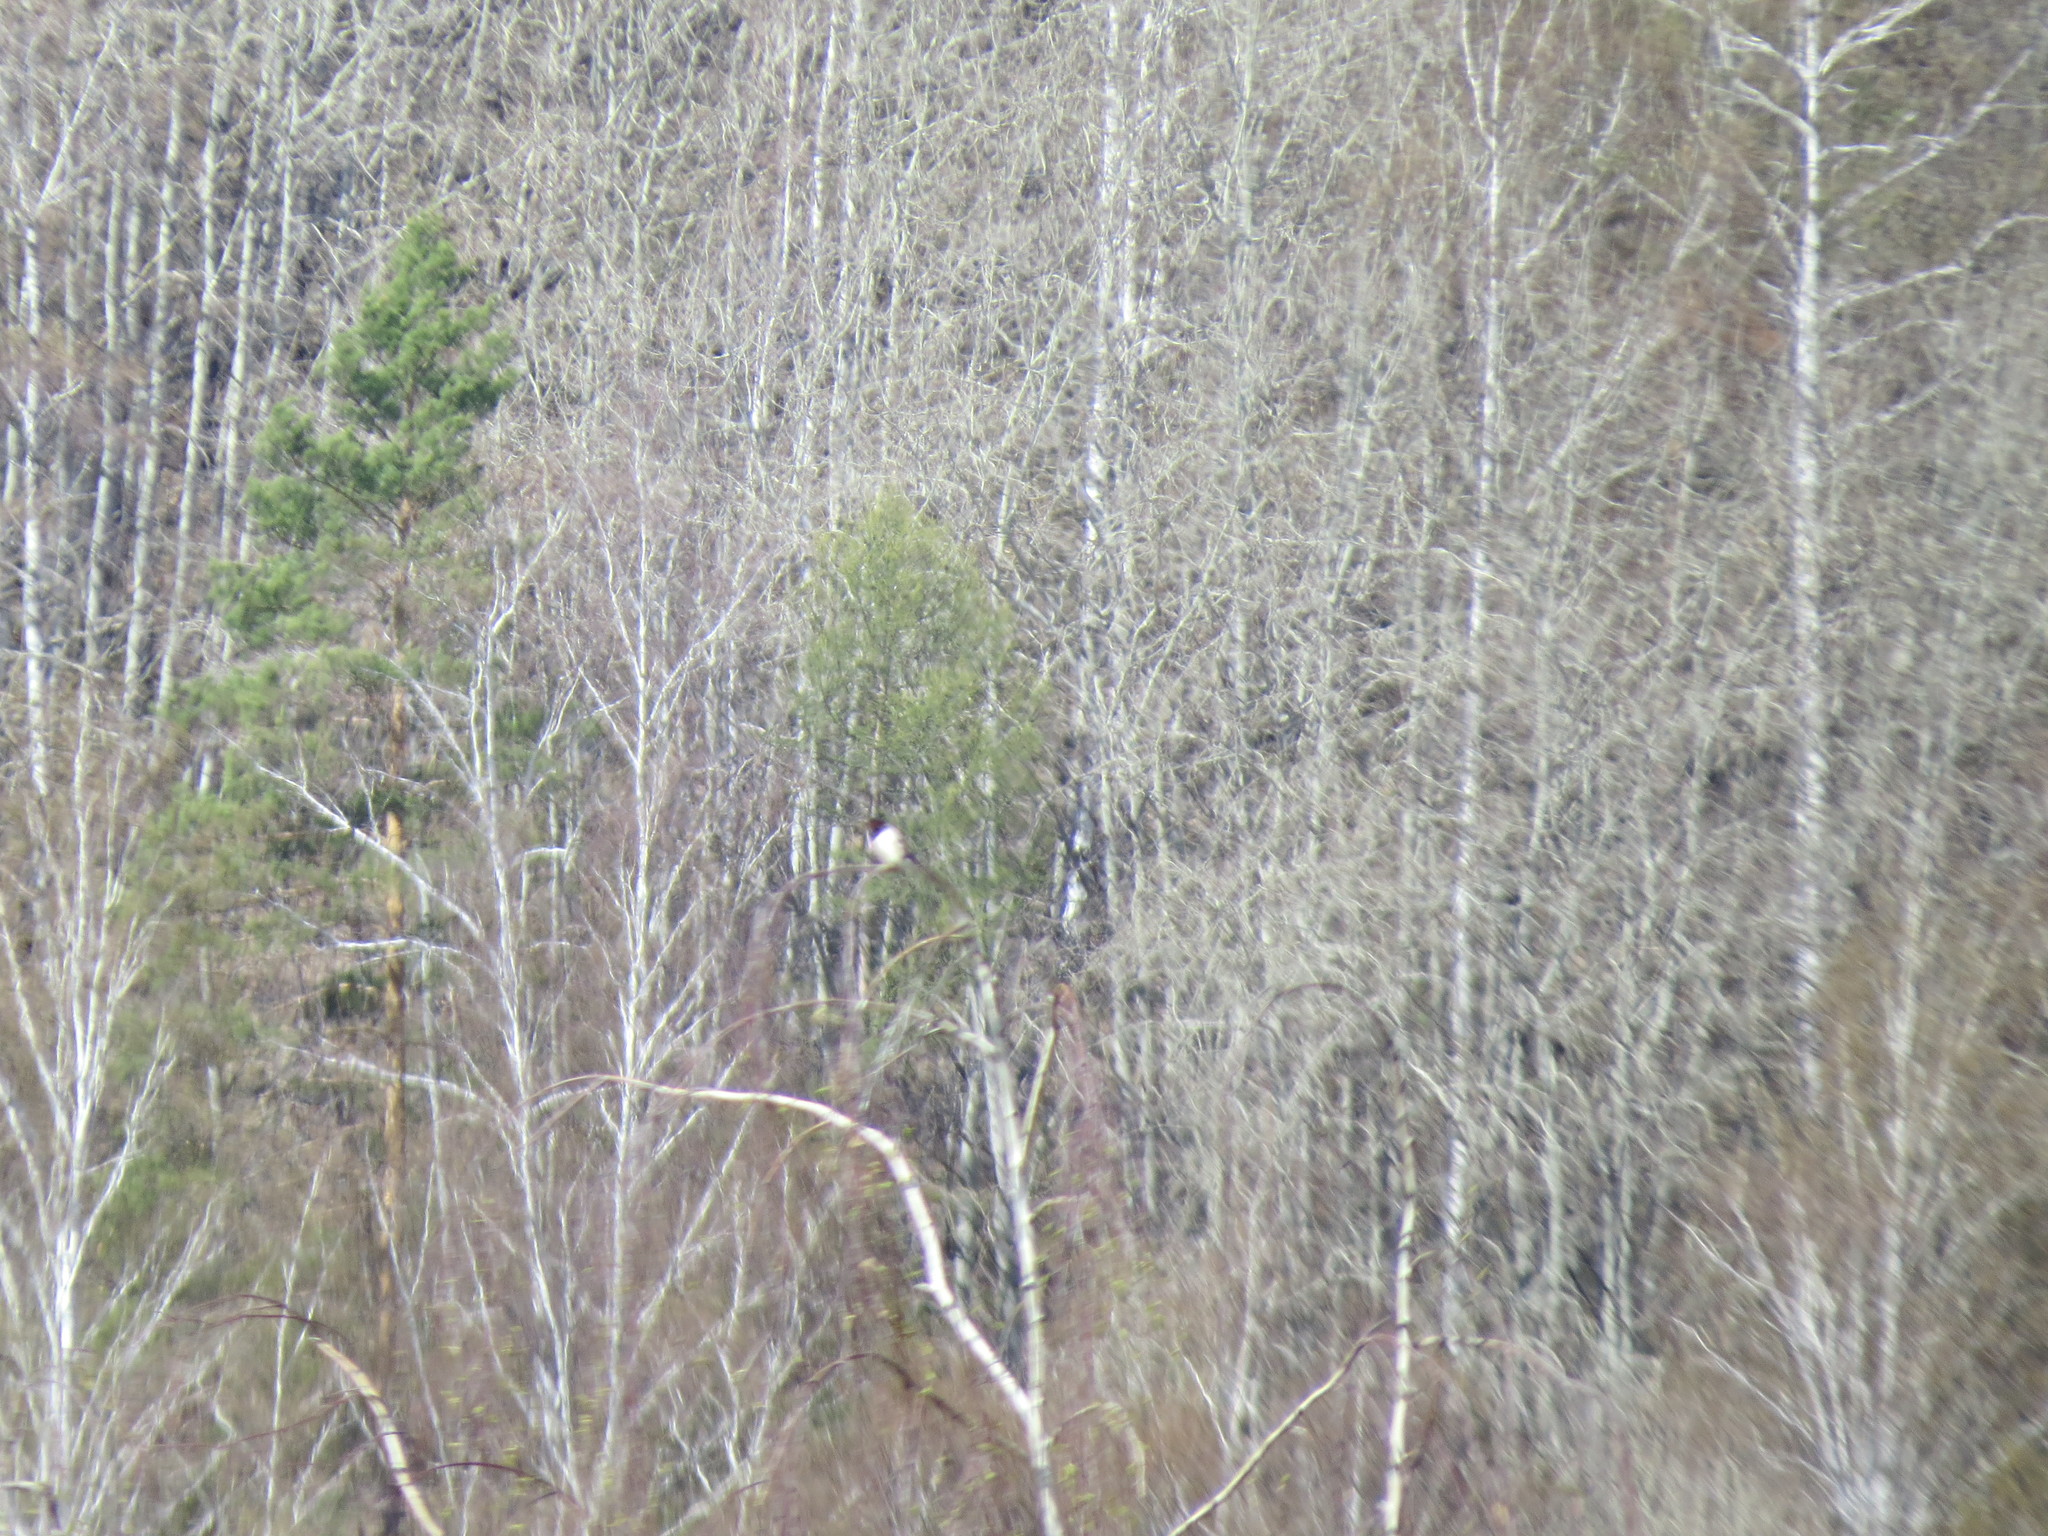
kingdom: Animalia
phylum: Chordata
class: Aves
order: Passeriformes
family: Corvidae
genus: Pica
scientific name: Pica pica
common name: Eurasian magpie
